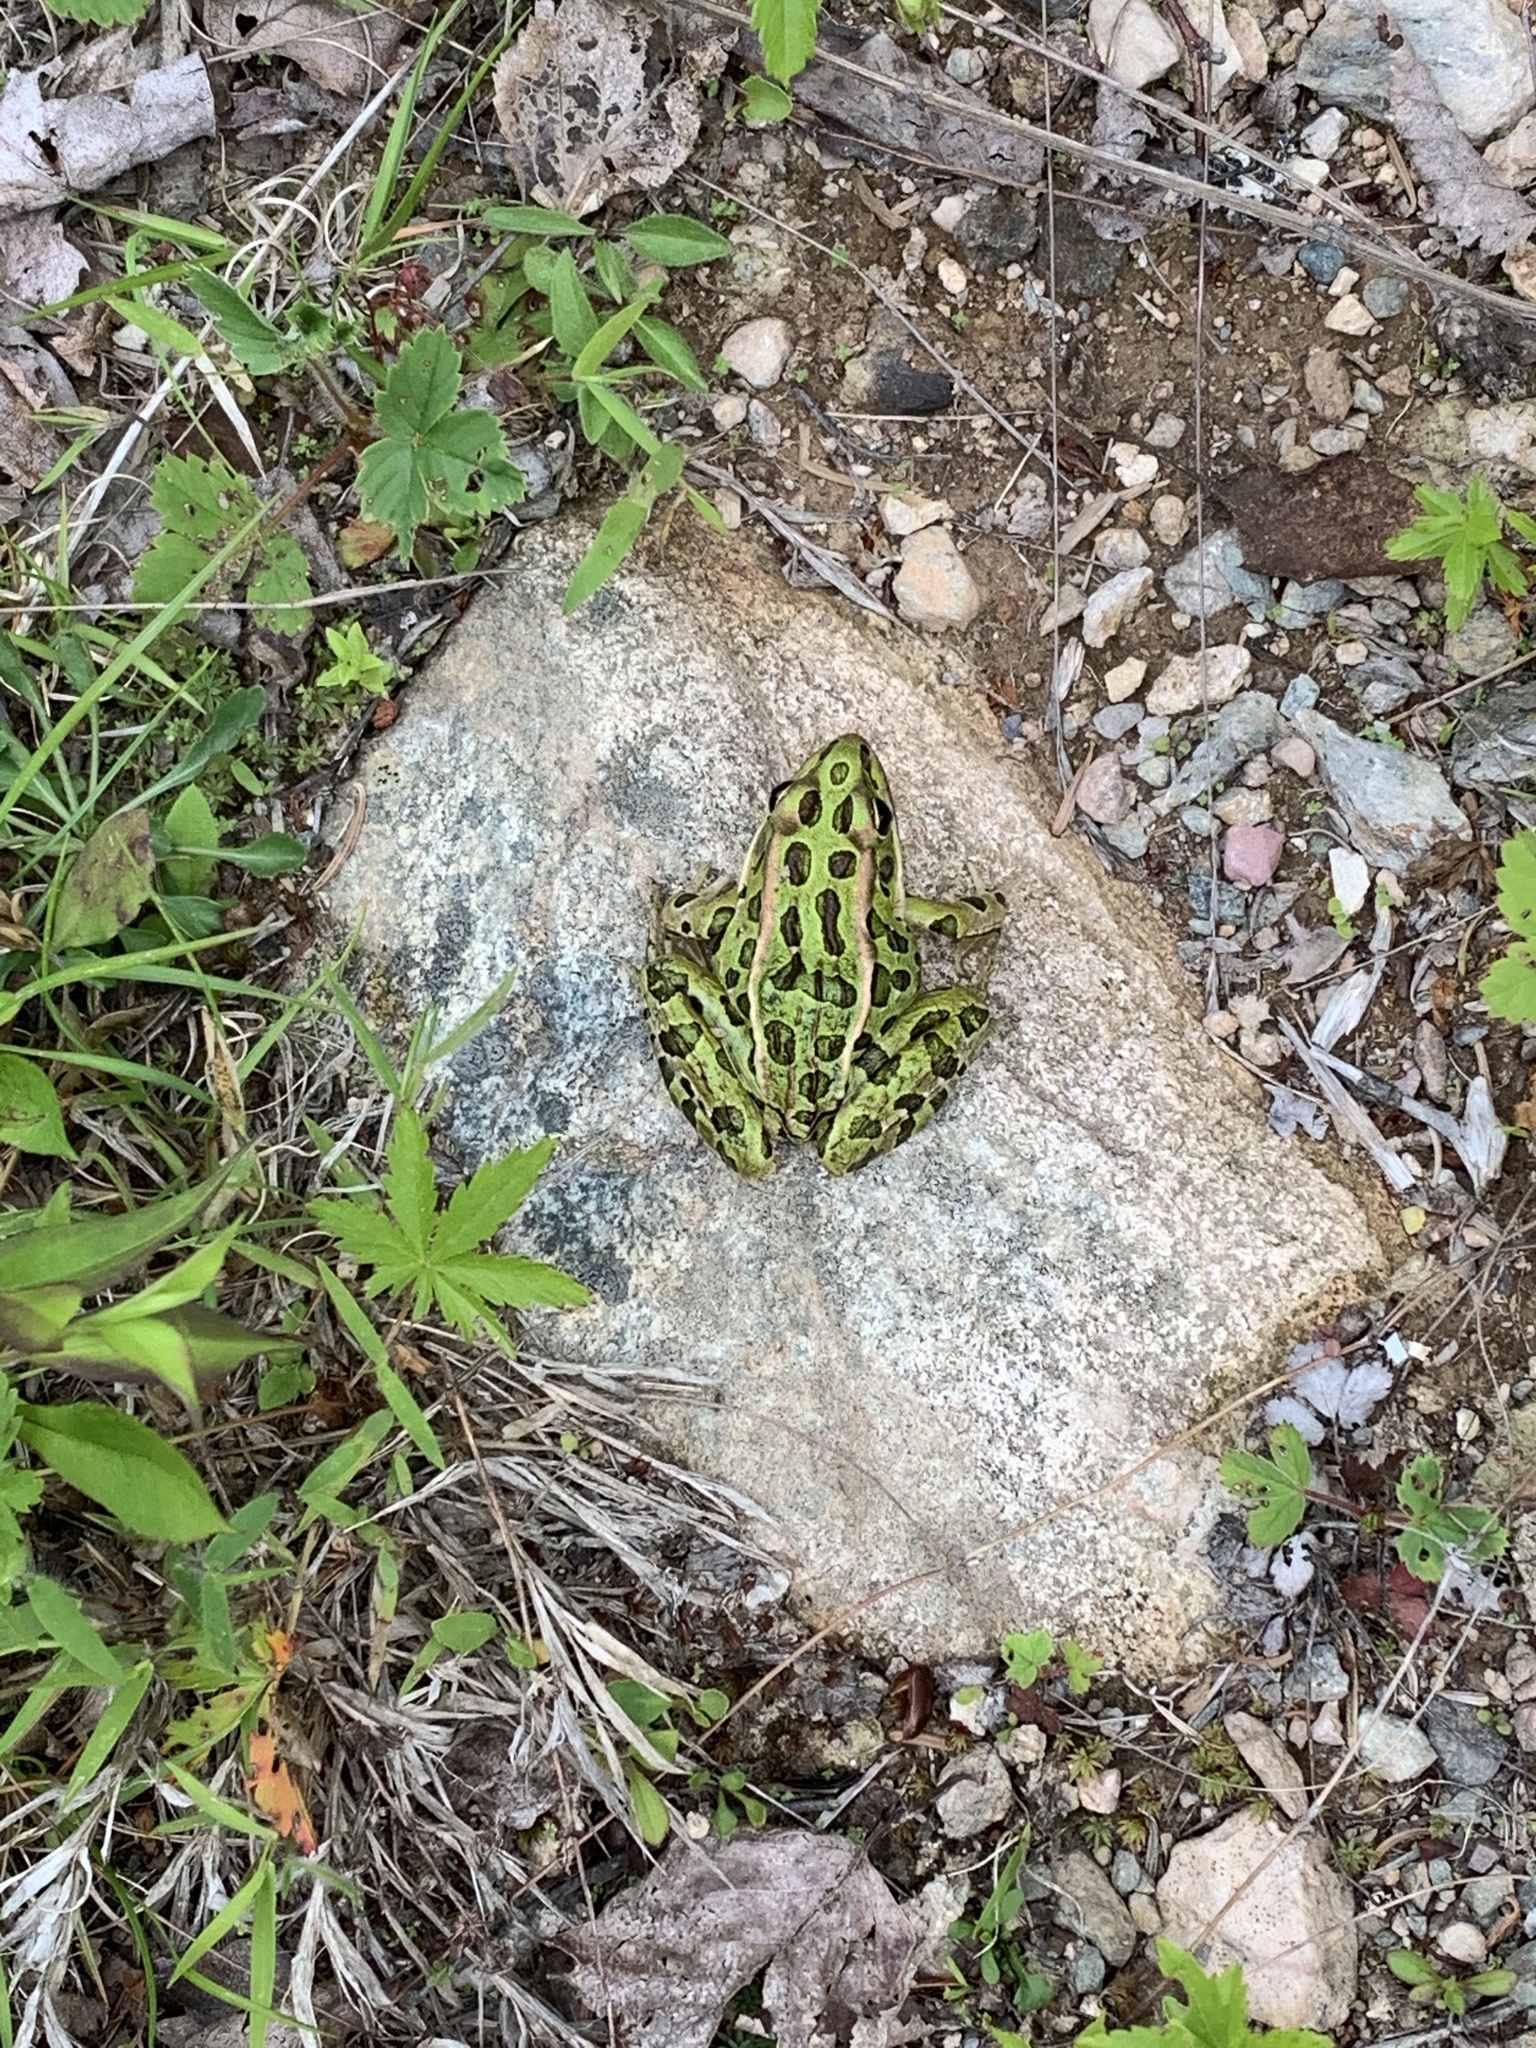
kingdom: Animalia
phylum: Chordata
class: Amphibia
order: Anura
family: Ranidae
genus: Lithobates
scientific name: Lithobates pipiens
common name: Northern leopard frog
